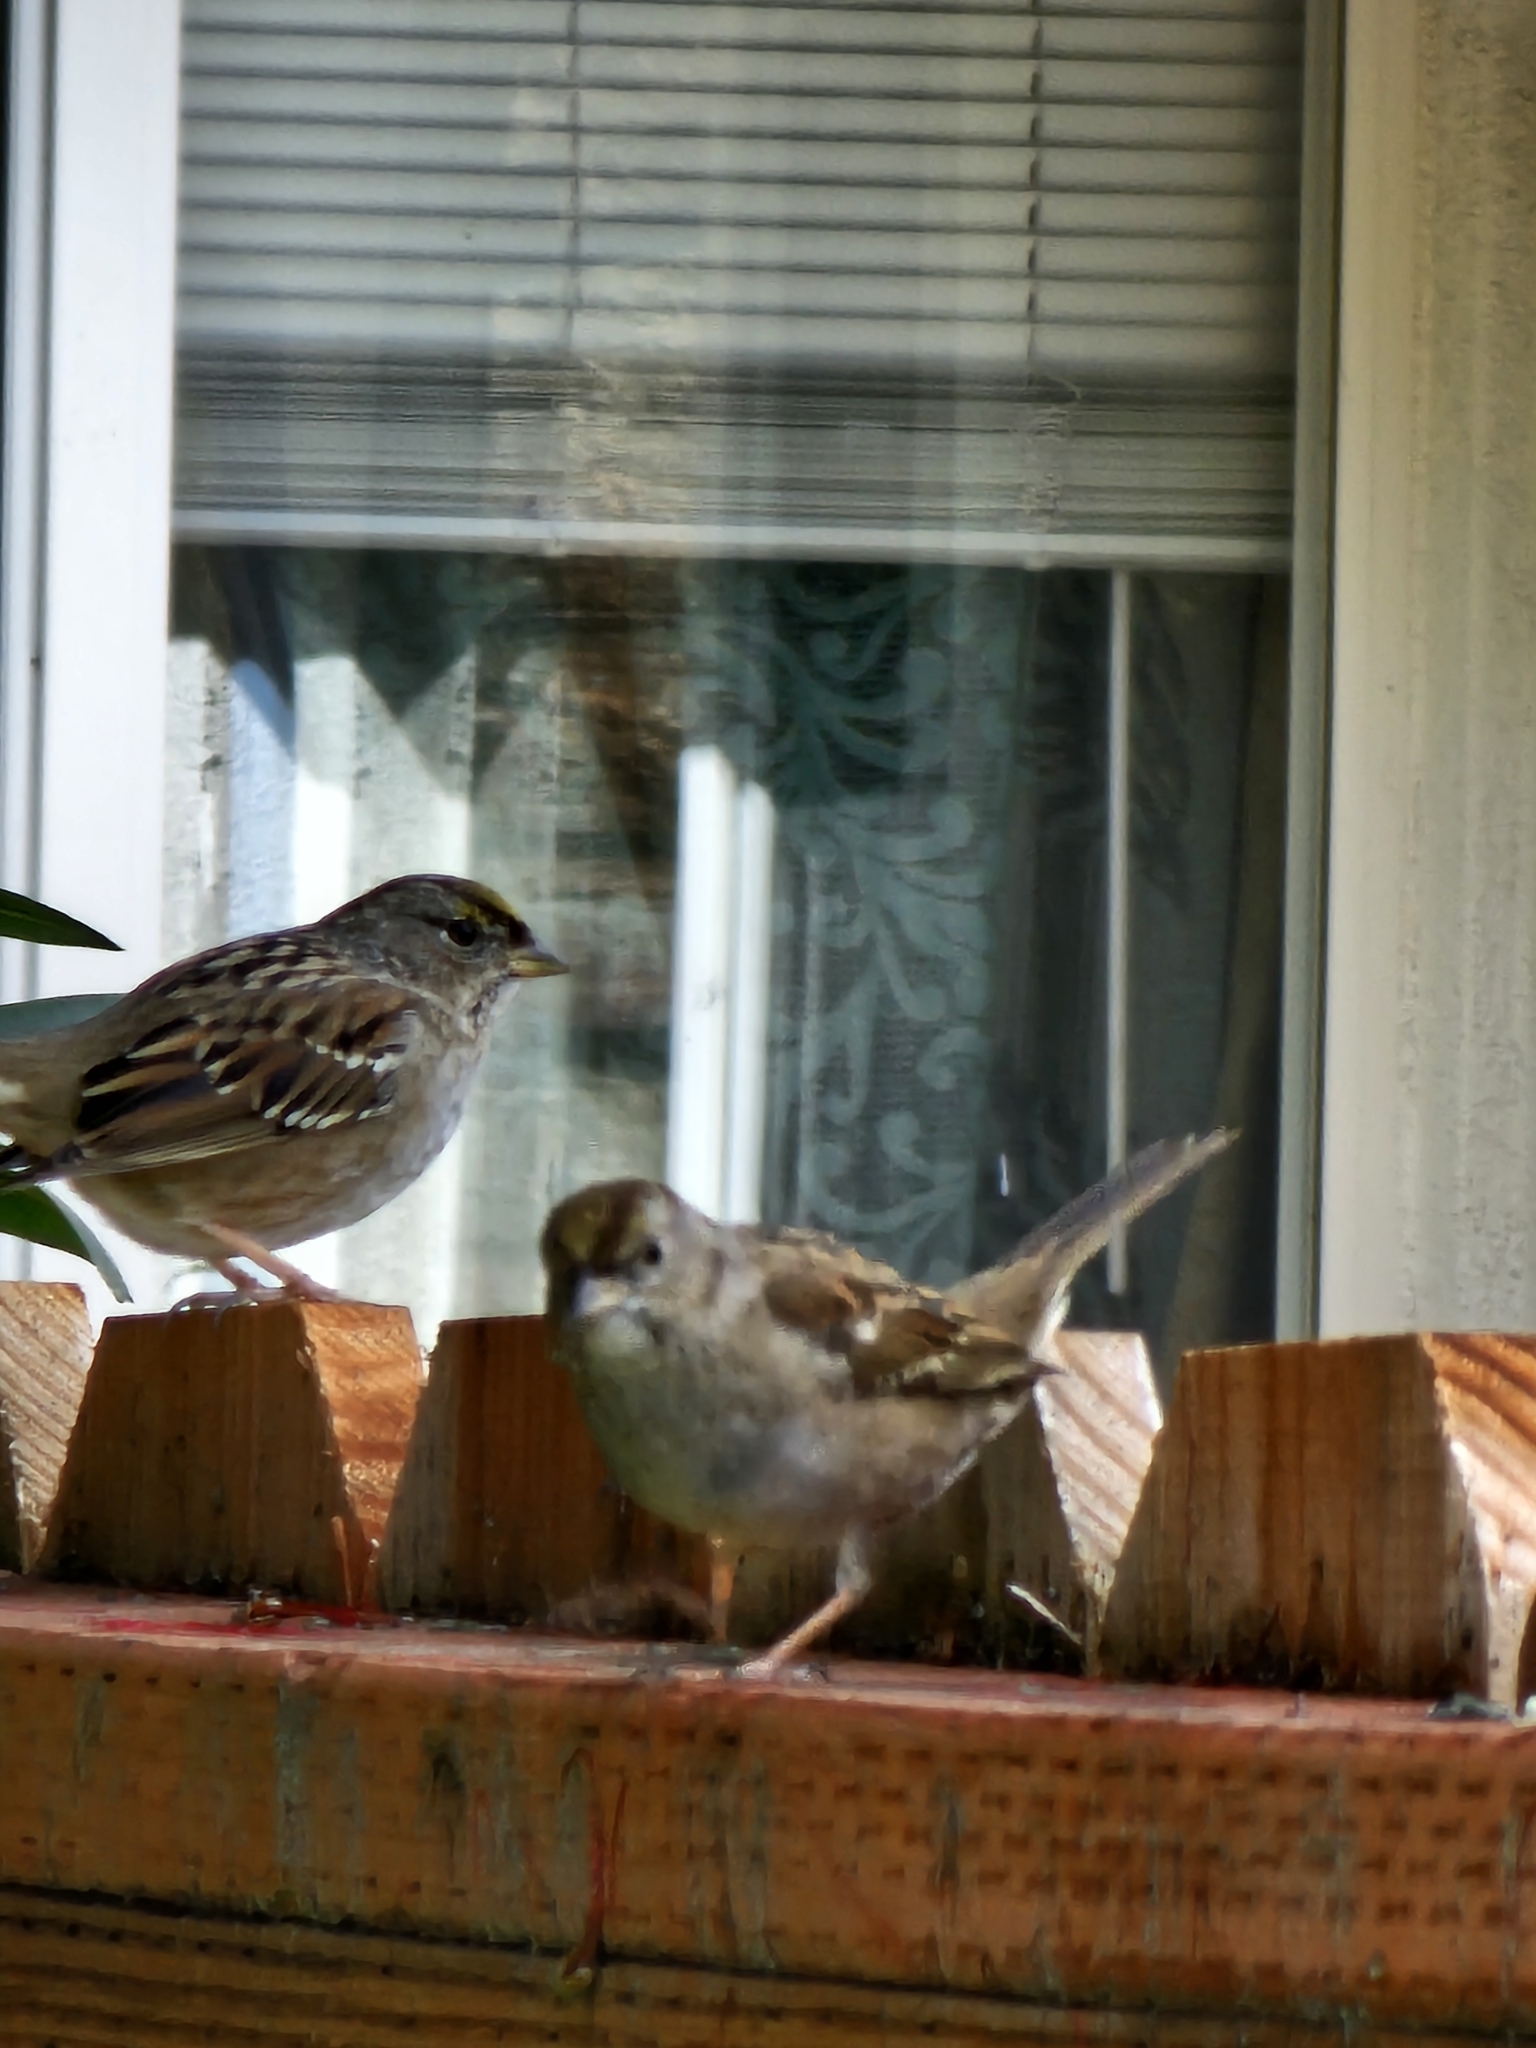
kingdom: Animalia
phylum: Chordata
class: Aves
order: Passeriformes
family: Passerellidae
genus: Zonotrichia
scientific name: Zonotrichia atricapilla
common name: Golden-crowned sparrow
